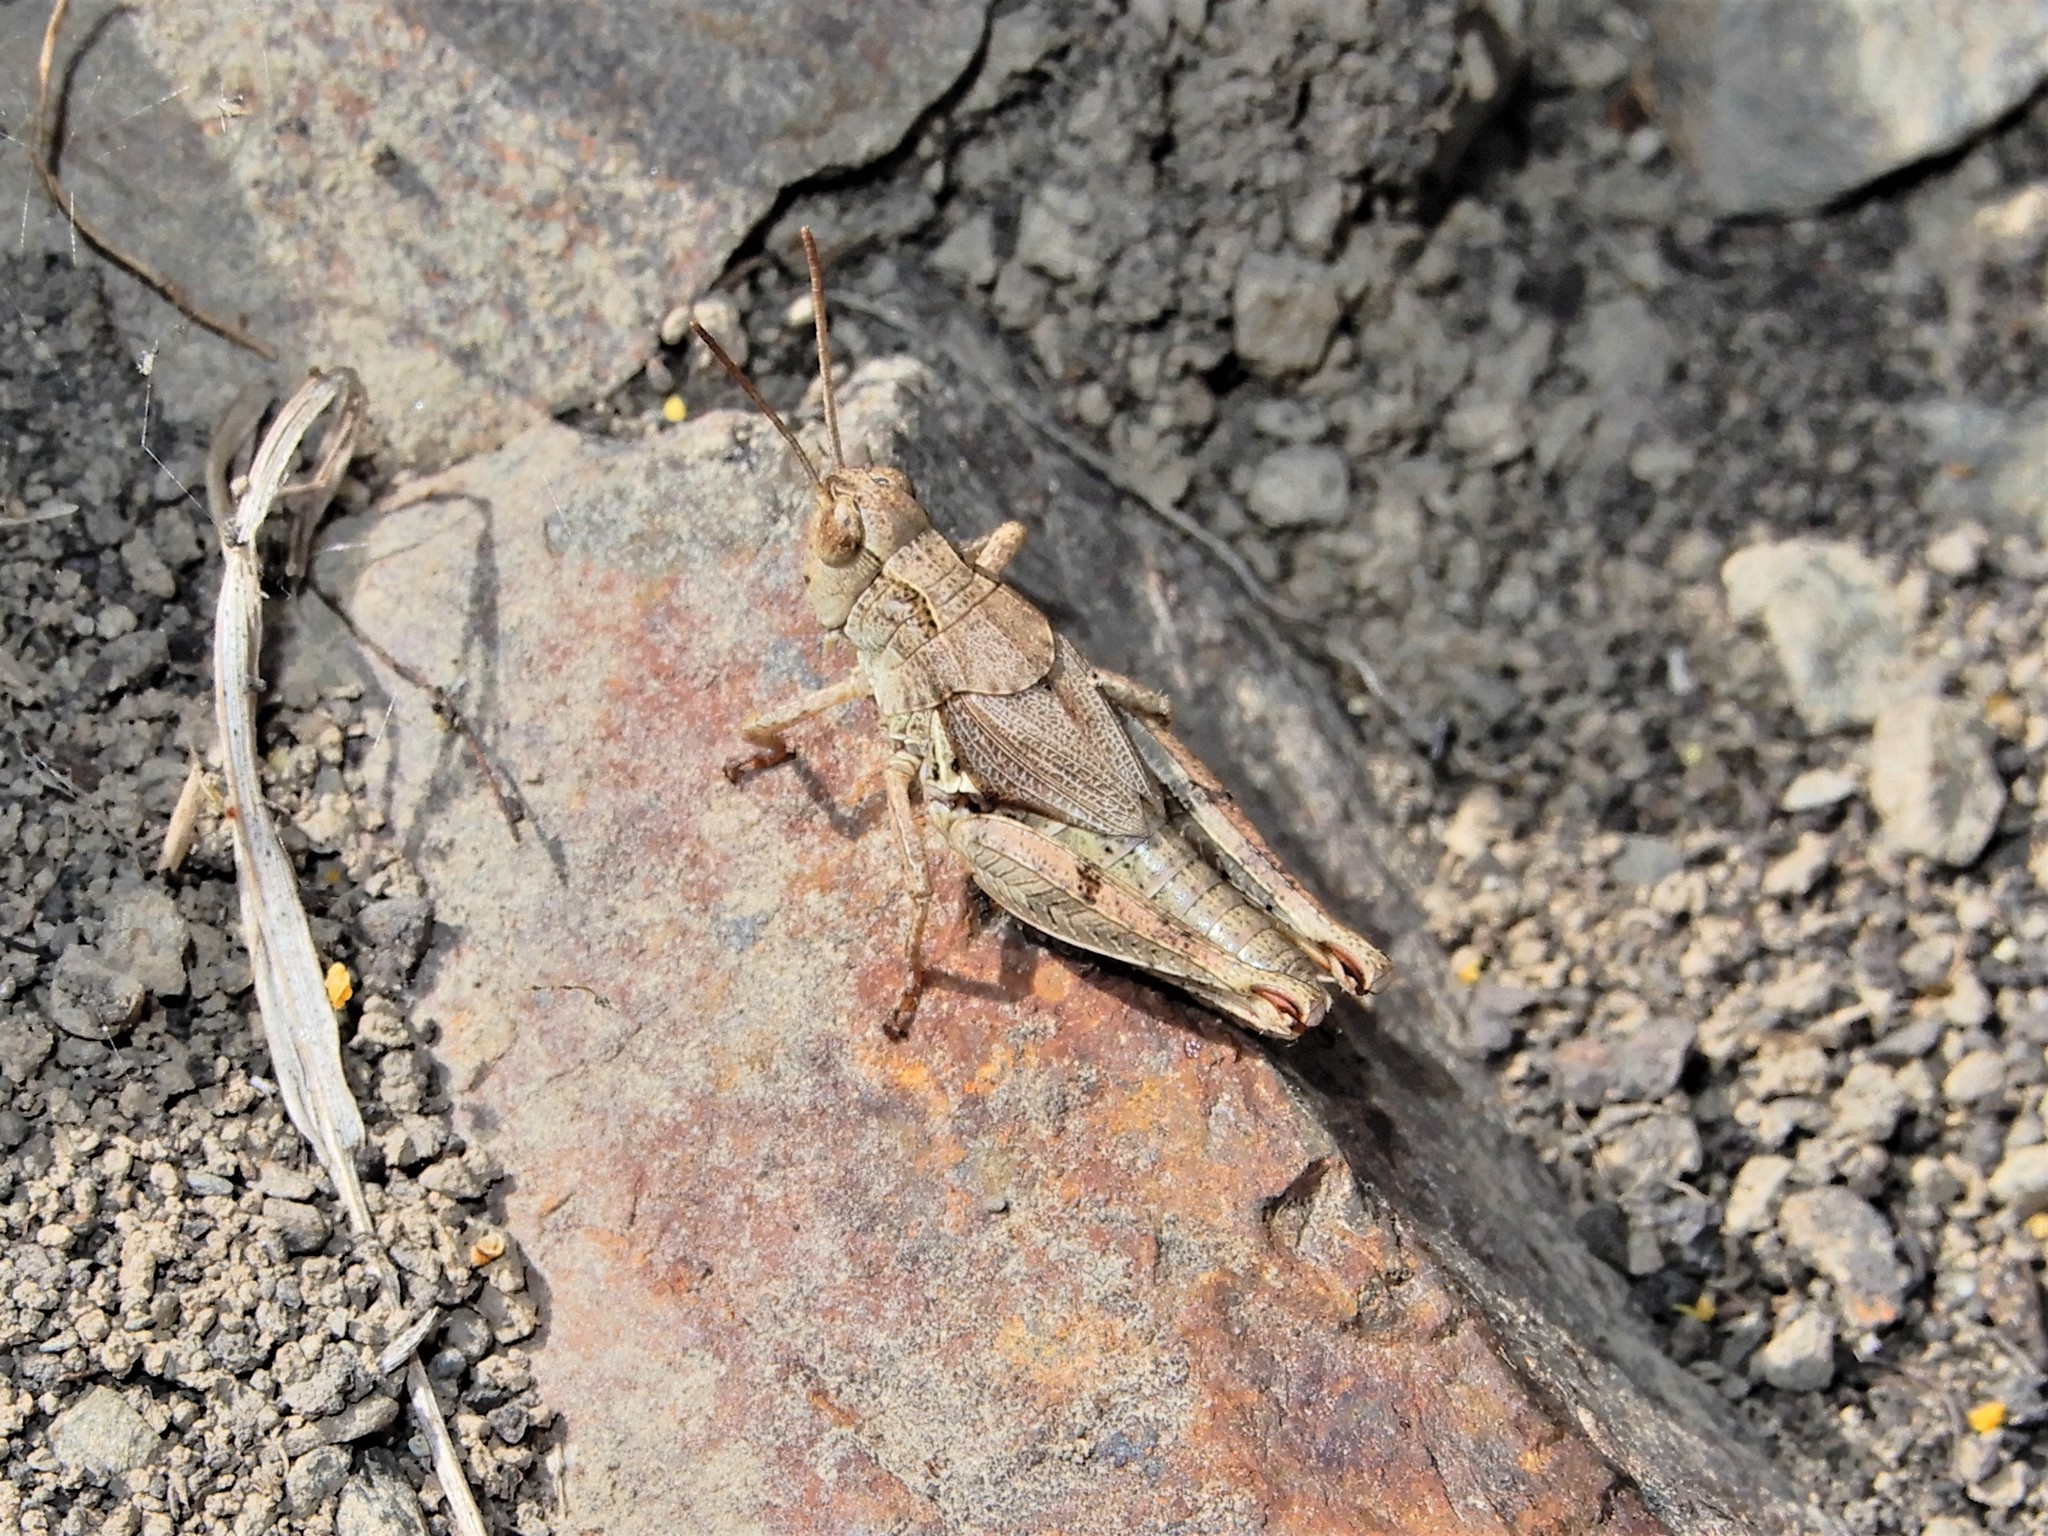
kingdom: Animalia
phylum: Arthropoda
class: Insecta
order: Orthoptera
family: Acrididae
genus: Phaulacridium
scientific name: Phaulacridium marginale
